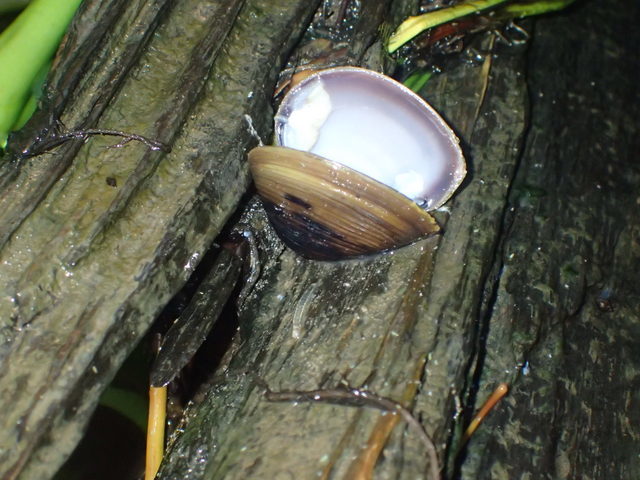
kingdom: Animalia
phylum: Mollusca
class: Bivalvia
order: Venerida
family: Cyrenidae
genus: Corbicula
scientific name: Corbicula fluminea
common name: Asian clam
